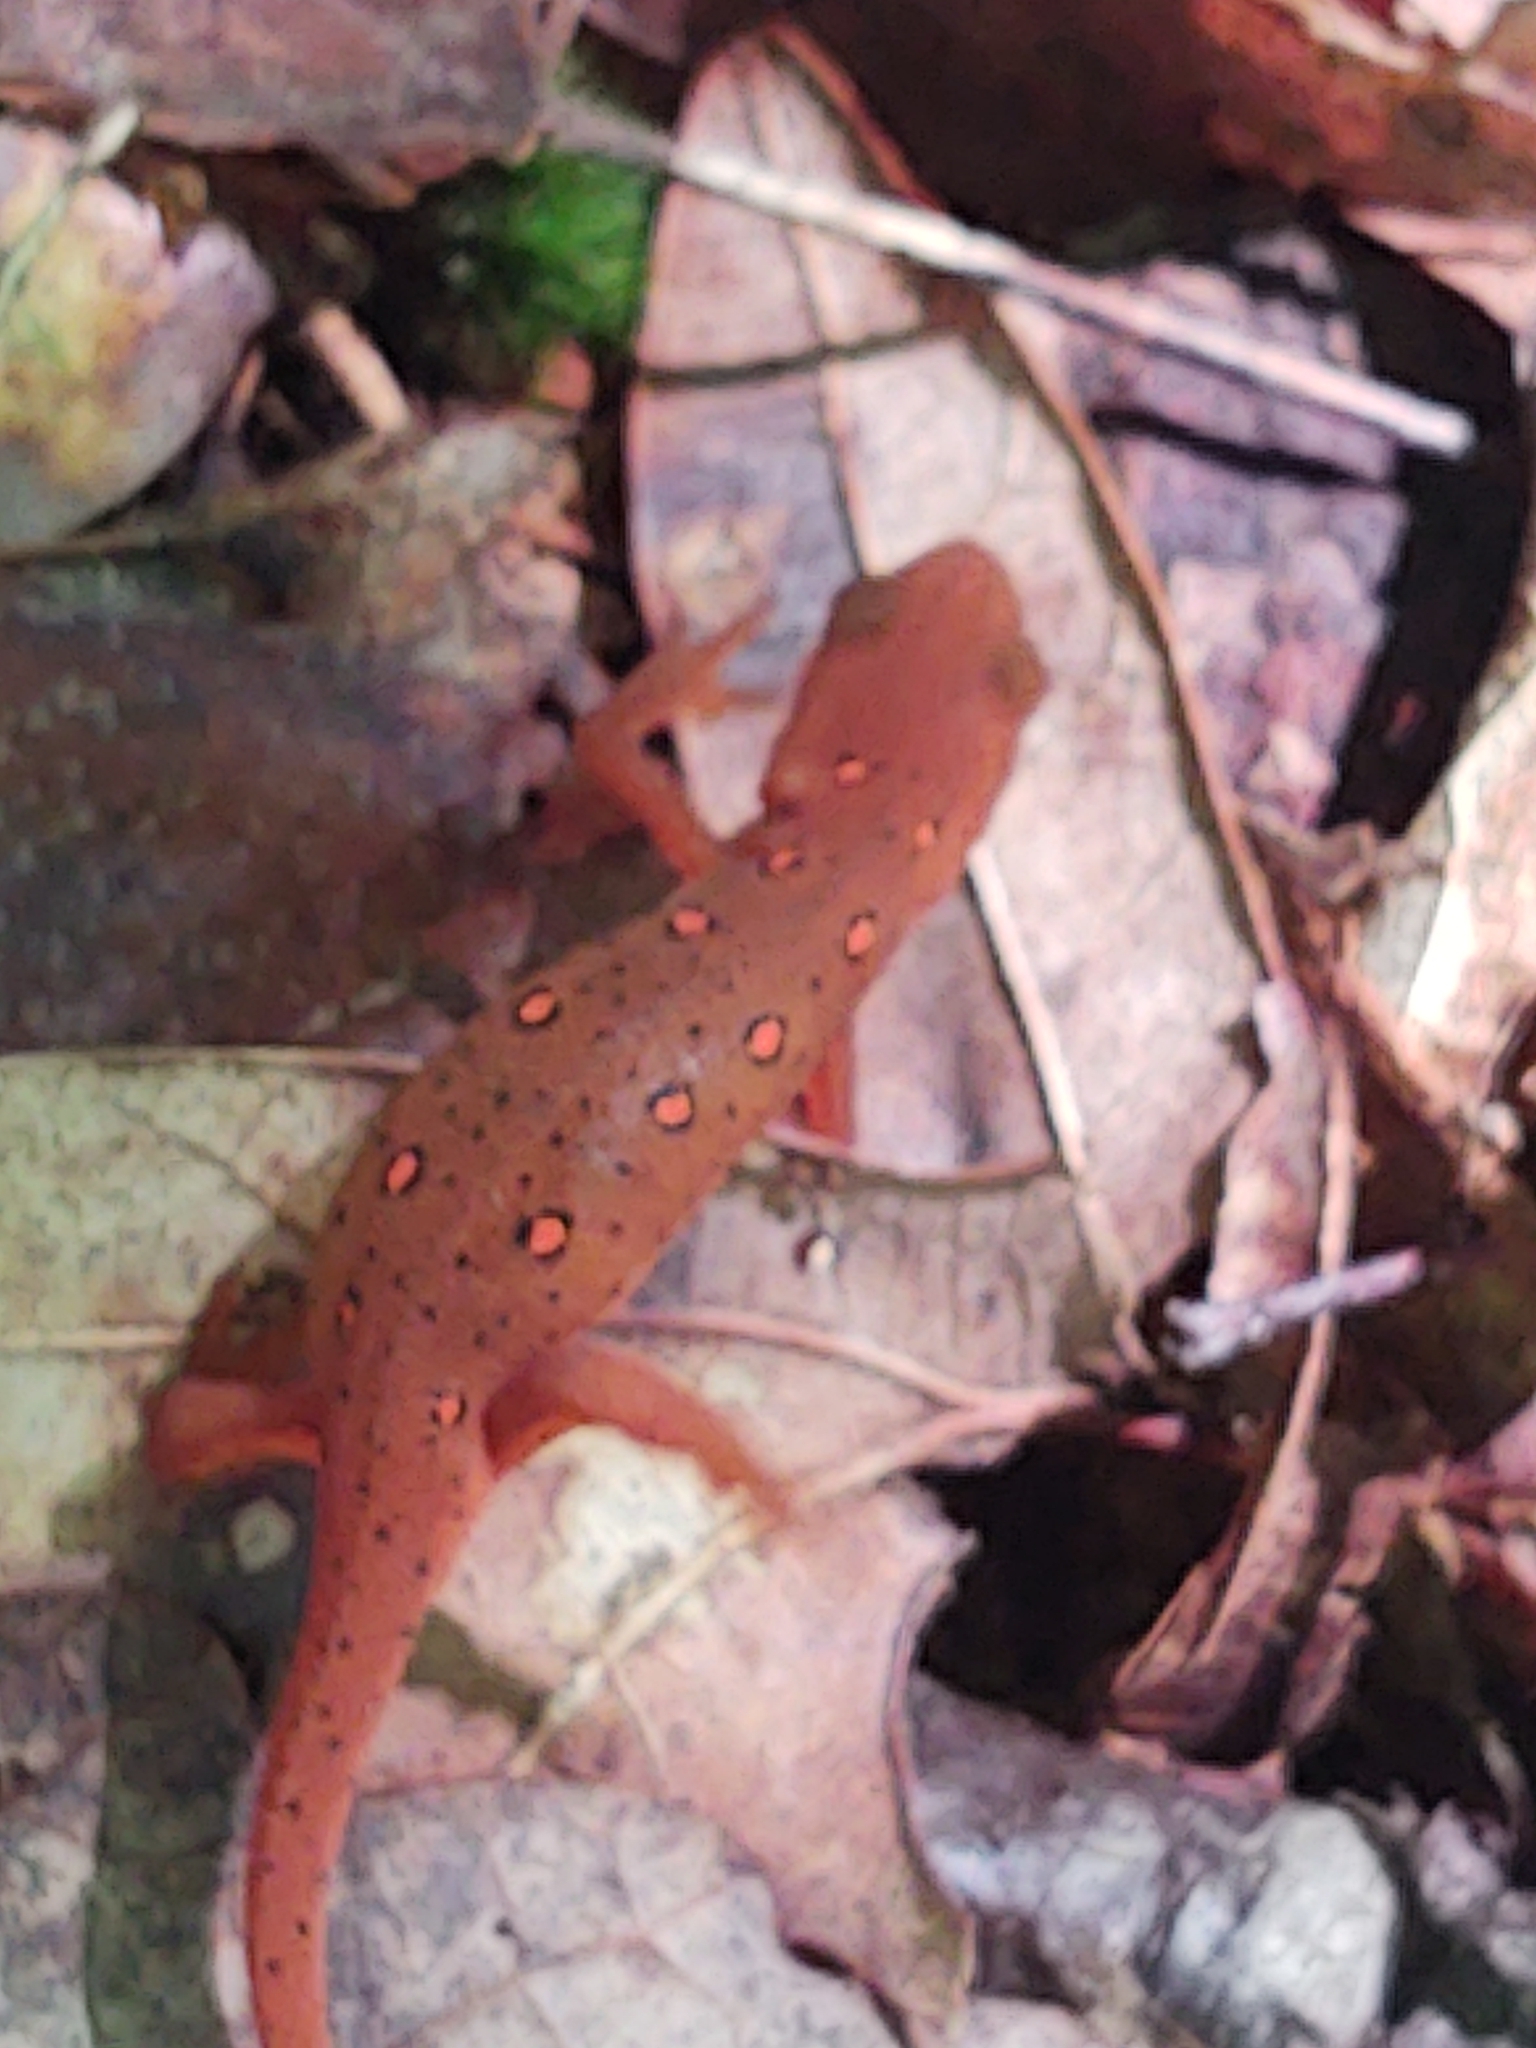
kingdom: Animalia
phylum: Chordata
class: Amphibia
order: Caudata
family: Salamandridae
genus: Notophthalmus
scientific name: Notophthalmus viridescens
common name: Eastern newt
